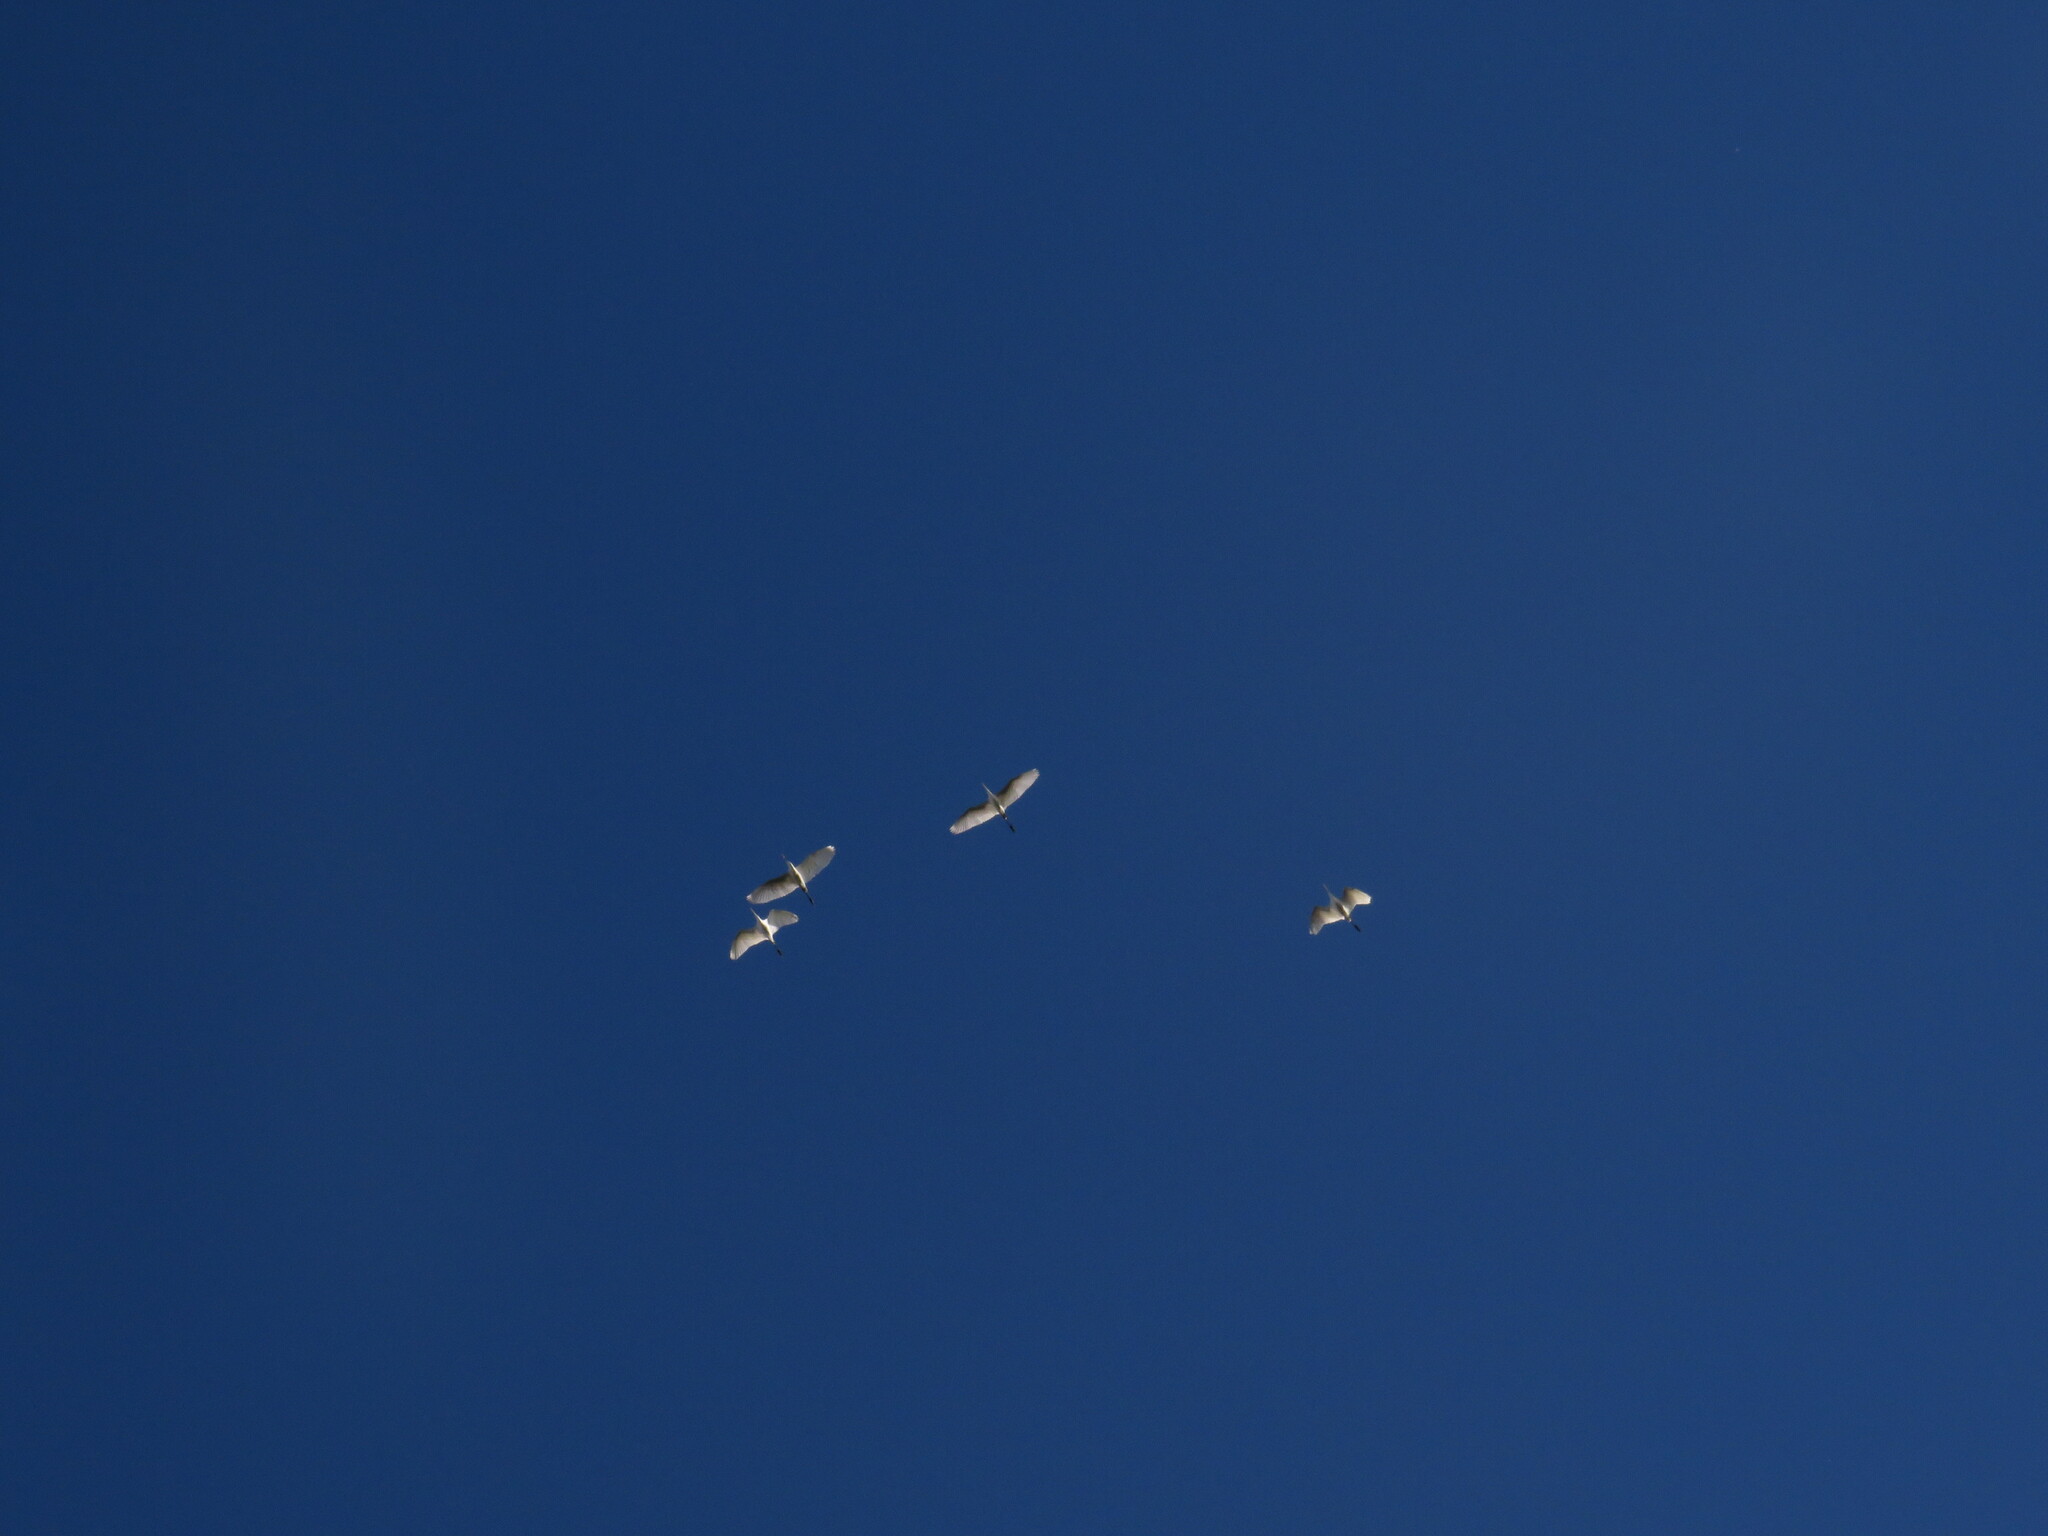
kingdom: Animalia
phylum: Chordata
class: Aves
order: Pelecaniformes
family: Ardeidae
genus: Ardea
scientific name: Ardea alba
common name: Great egret
